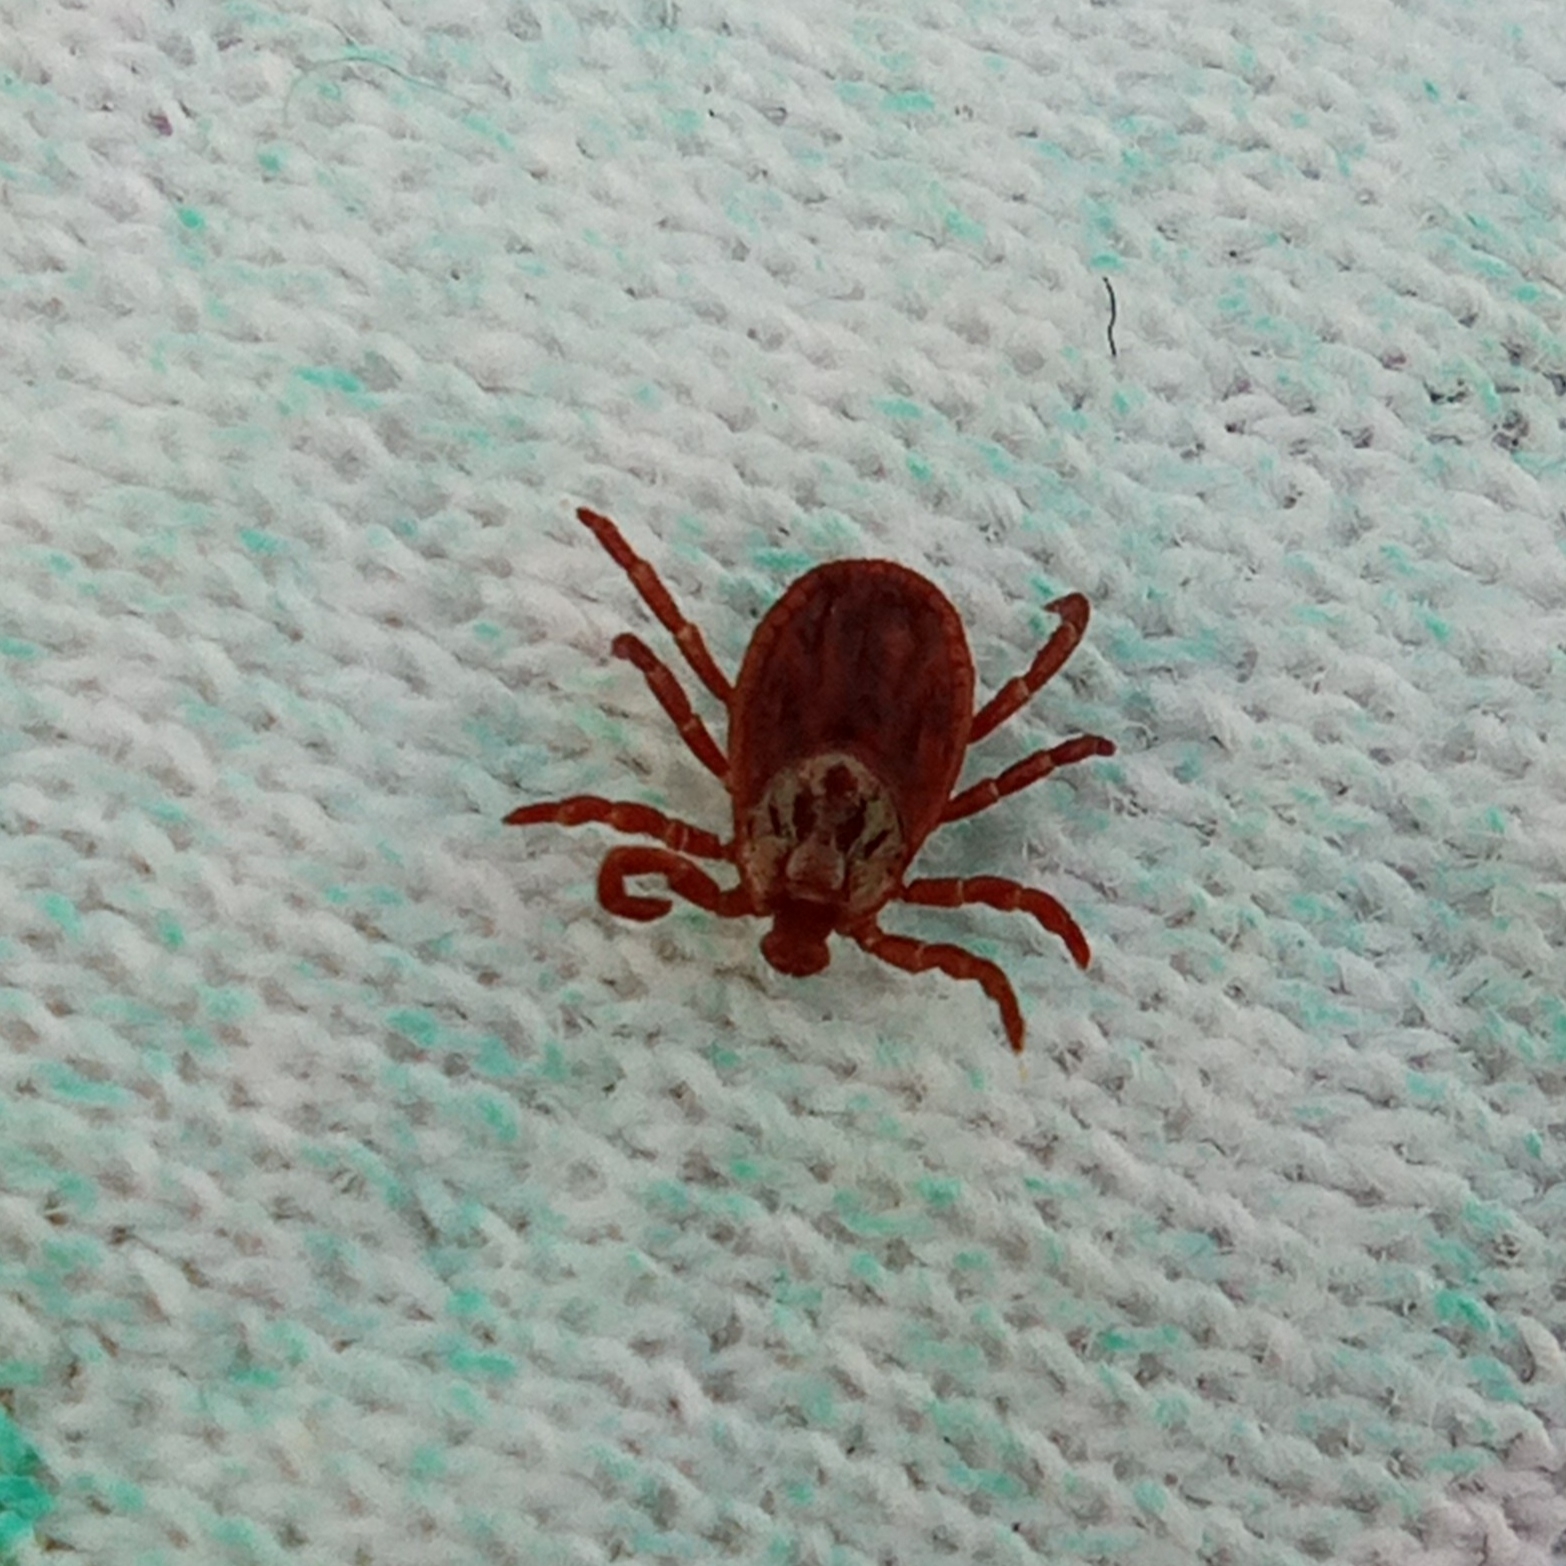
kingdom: Animalia
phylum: Arthropoda
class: Arachnida
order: Ixodida
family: Ixodidae
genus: Dermacentor
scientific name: Dermacentor reticulatus
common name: Ornate cow tick
